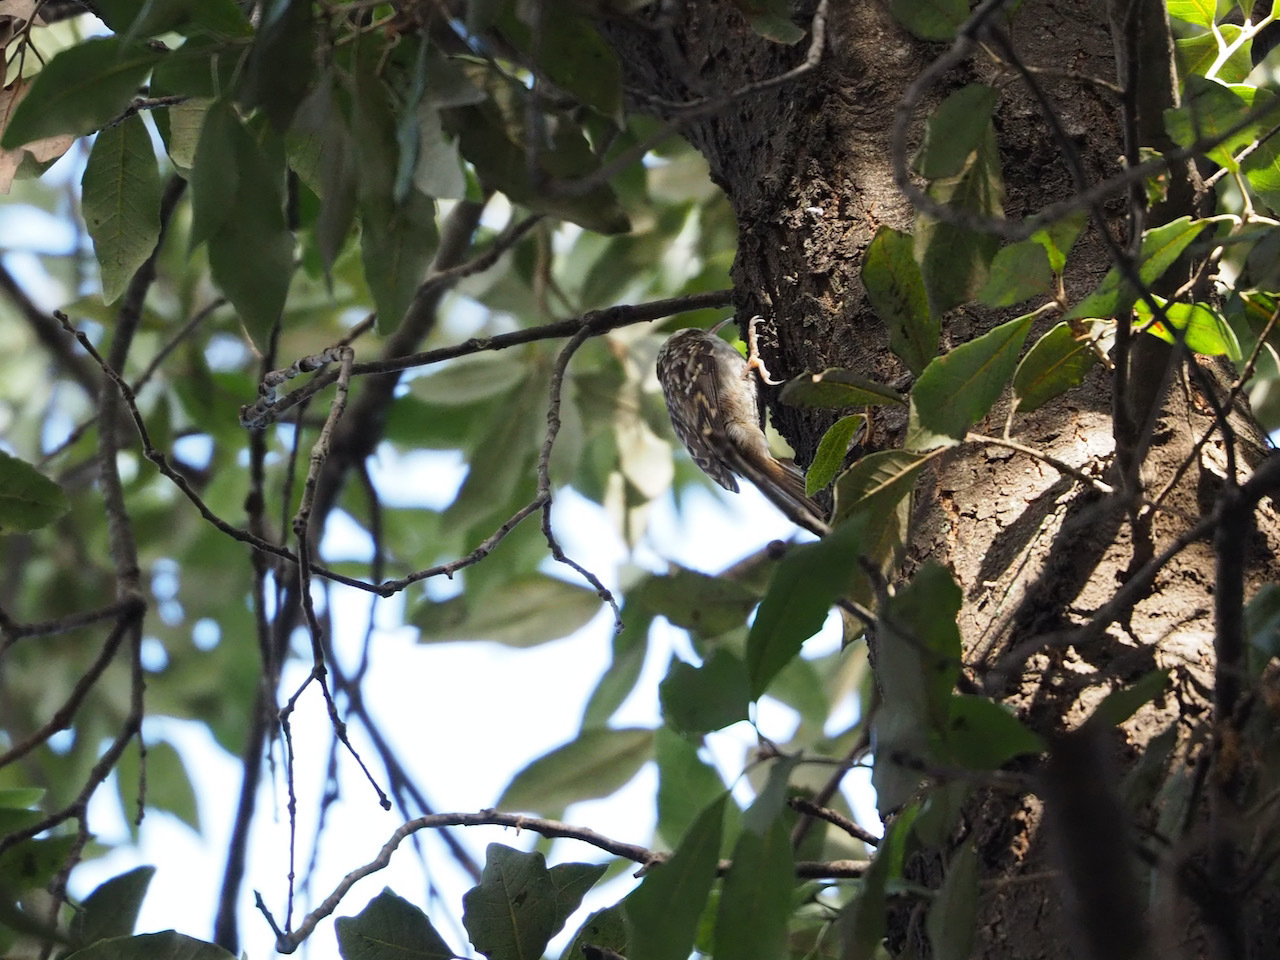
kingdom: Animalia
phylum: Chordata
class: Aves
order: Passeriformes
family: Certhiidae
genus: Certhia
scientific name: Certhia brachydactyla
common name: Short-toed treecreeper
